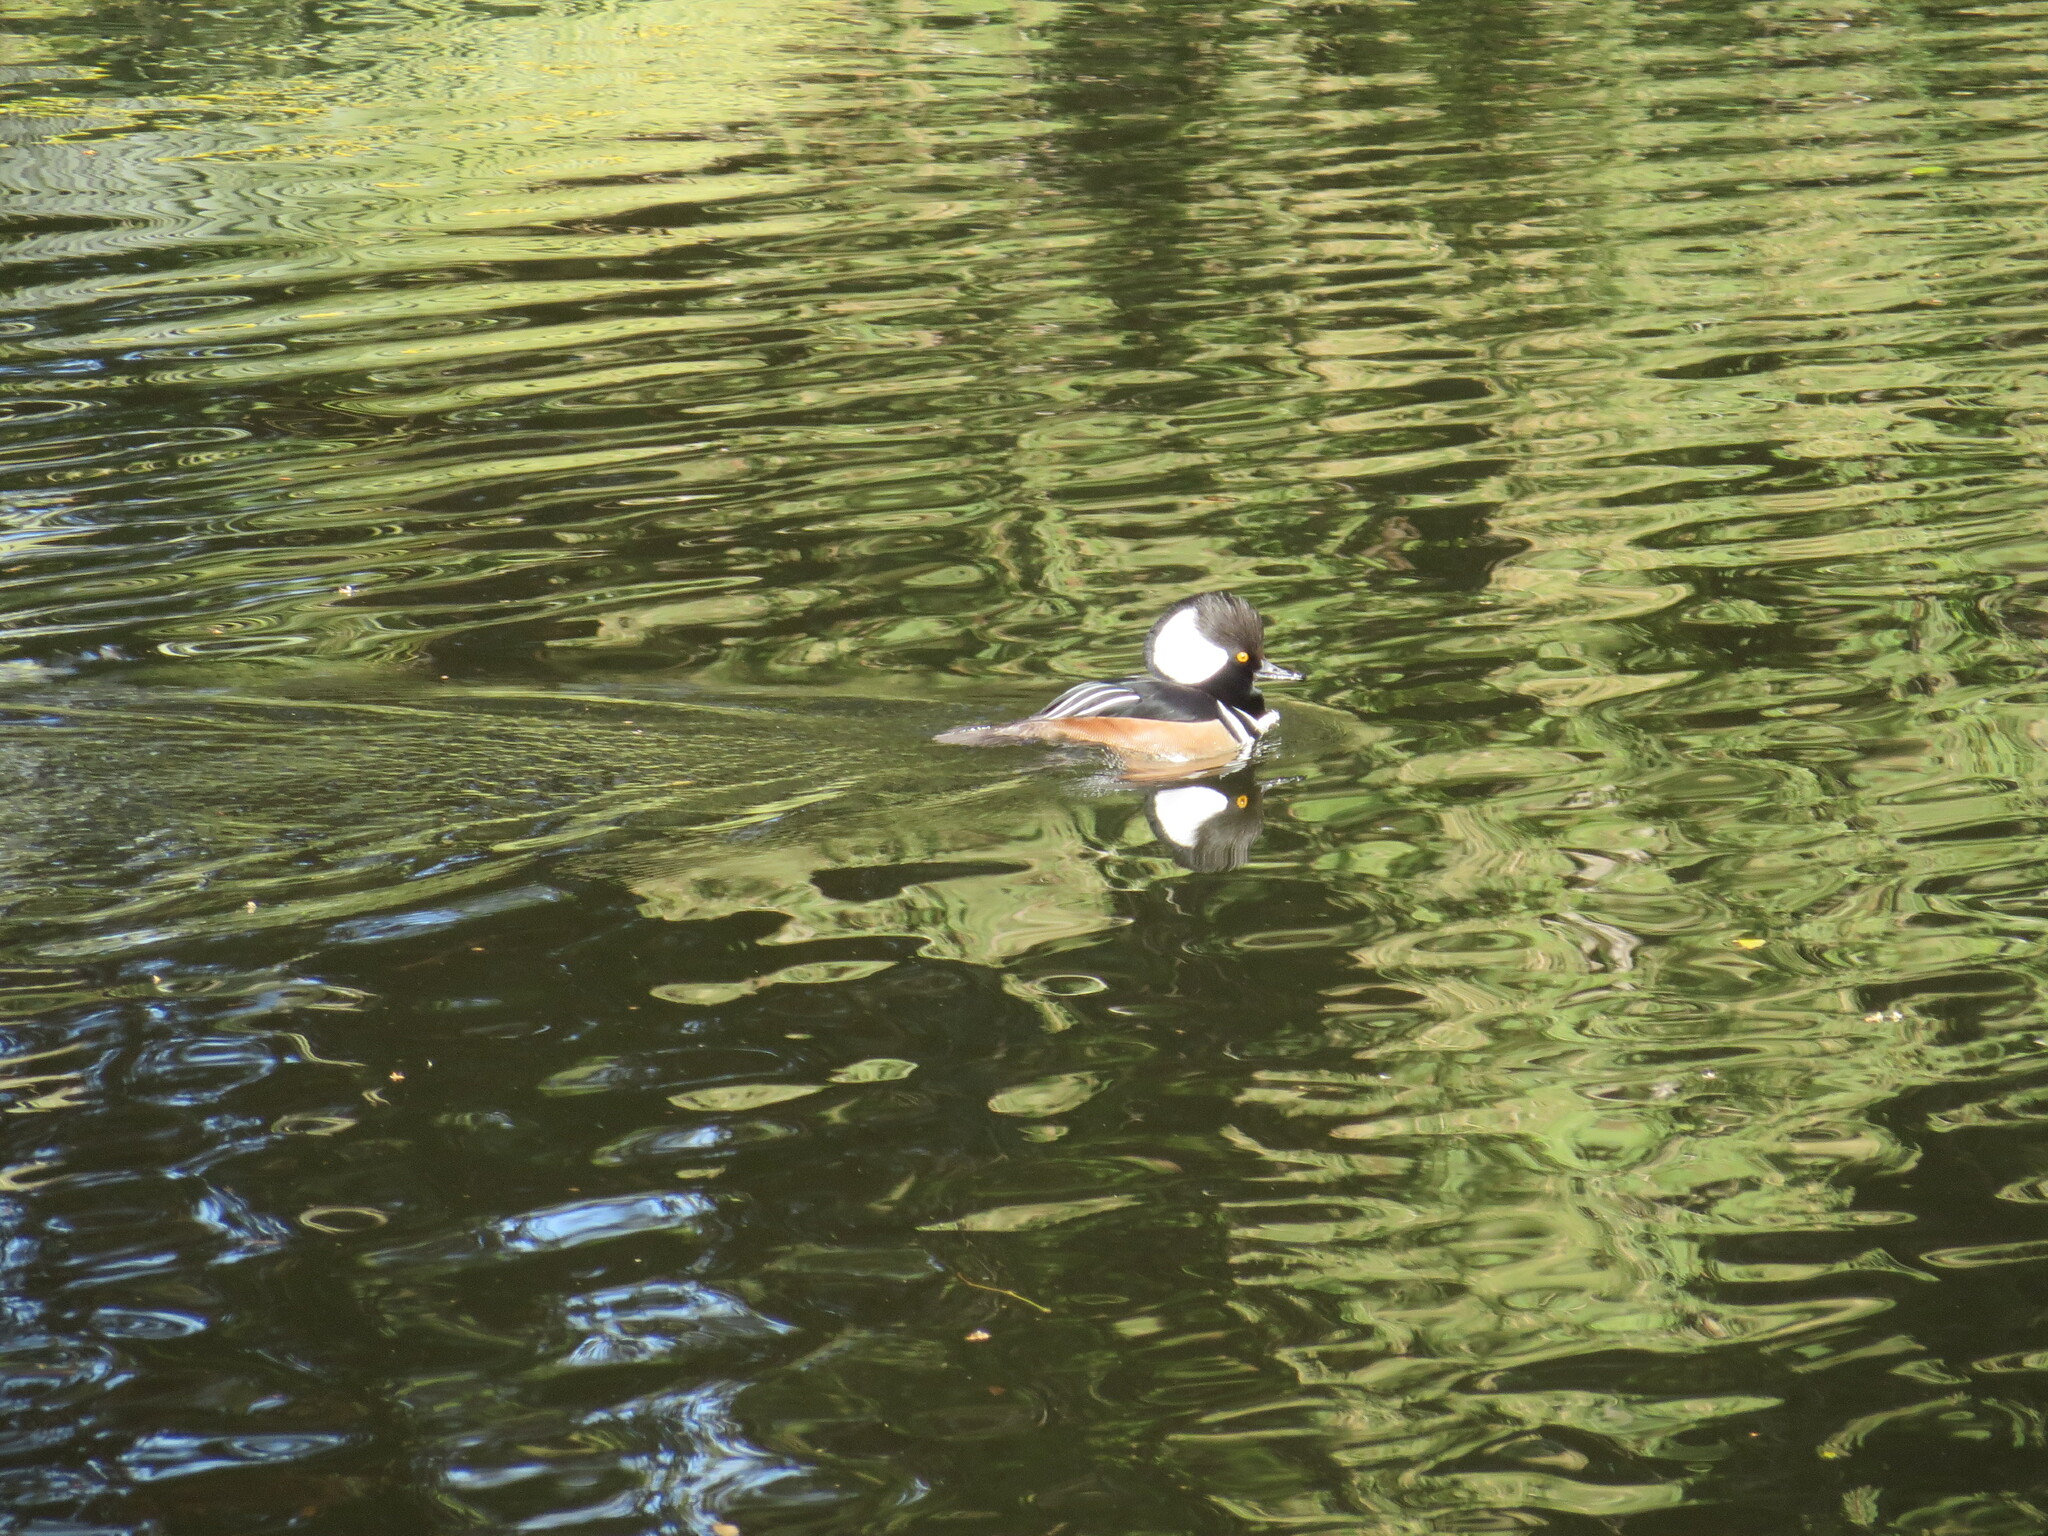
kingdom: Animalia
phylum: Chordata
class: Aves
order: Anseriformes
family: Anatidae
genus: Lophodytes
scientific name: Lophodytes cucullatus
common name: Hooded merganser
